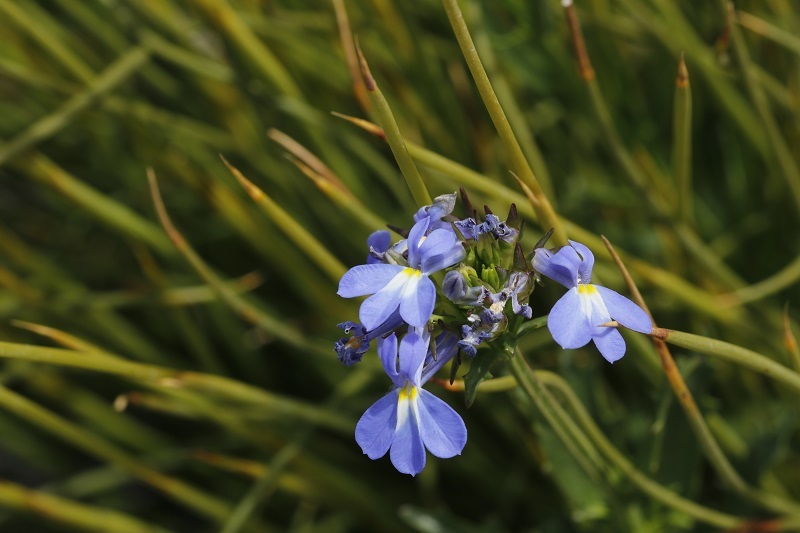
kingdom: Plantae
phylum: Tracheophyta
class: Magnoliopsida
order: Asterales
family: Campanulaceae
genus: Lobelia
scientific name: Lobelia comosa
